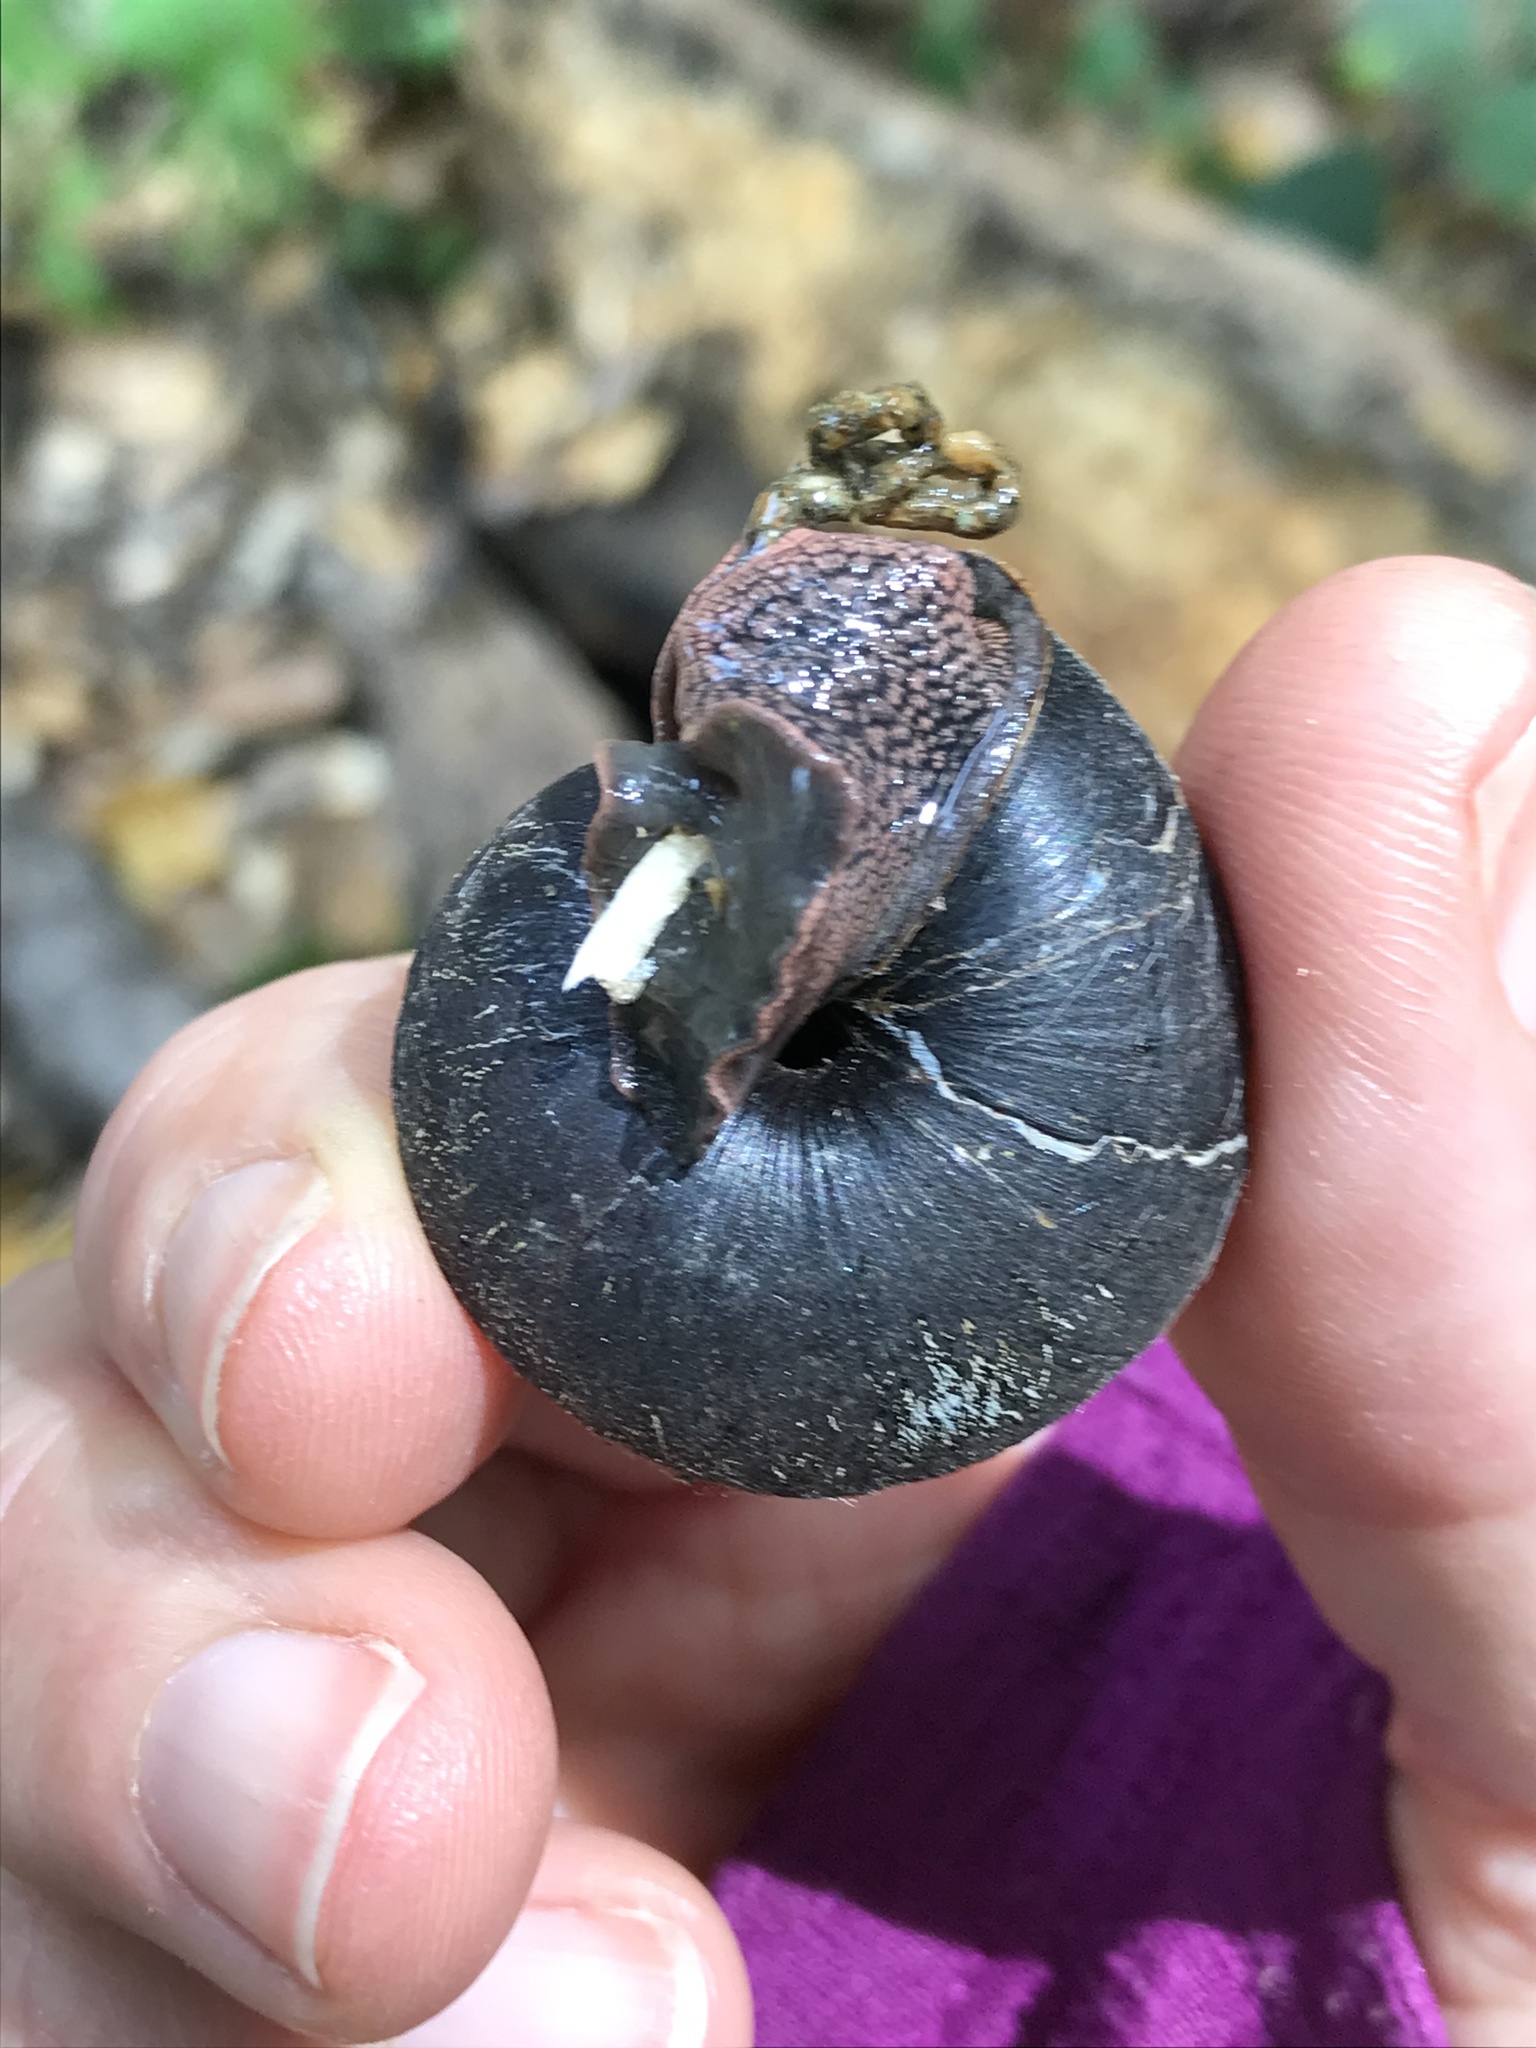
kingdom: Animalia
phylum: Mollusca
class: Gastropoda
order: Stylommatophora
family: Xanthonychidae
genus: Monadenia
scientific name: Monadenia infumata
